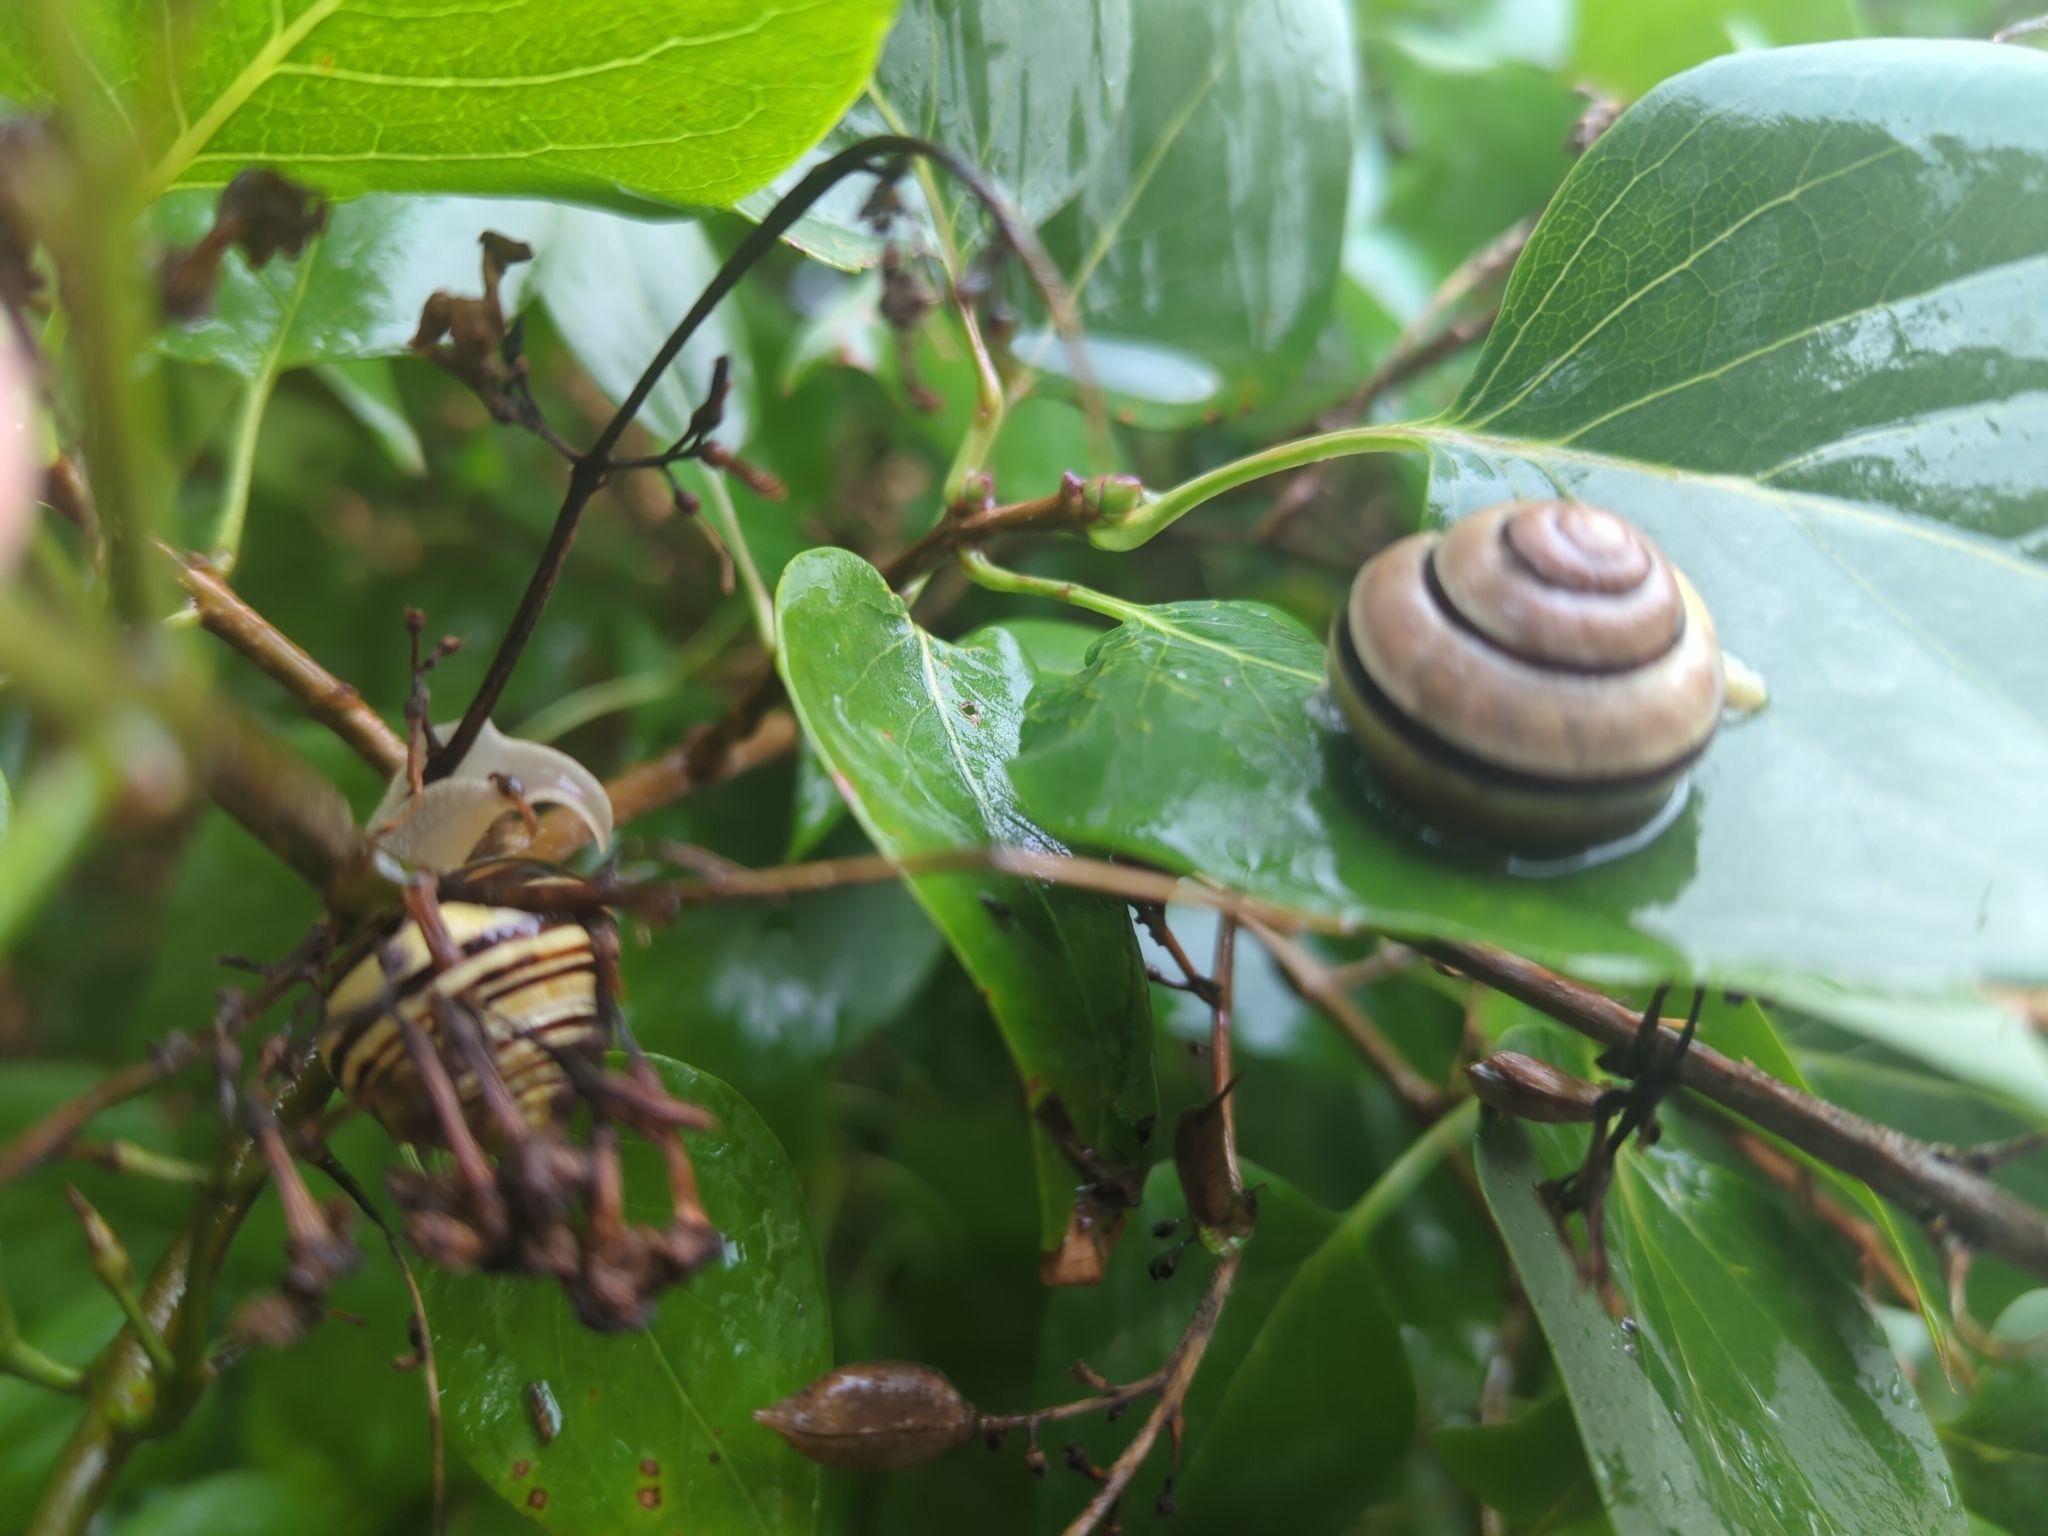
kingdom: Animalia
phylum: Mollusca
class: Gastropoda
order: Stylommatophora
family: Helicidae
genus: Cepaea
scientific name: Cepaea nemoralis
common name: Grovesnail
